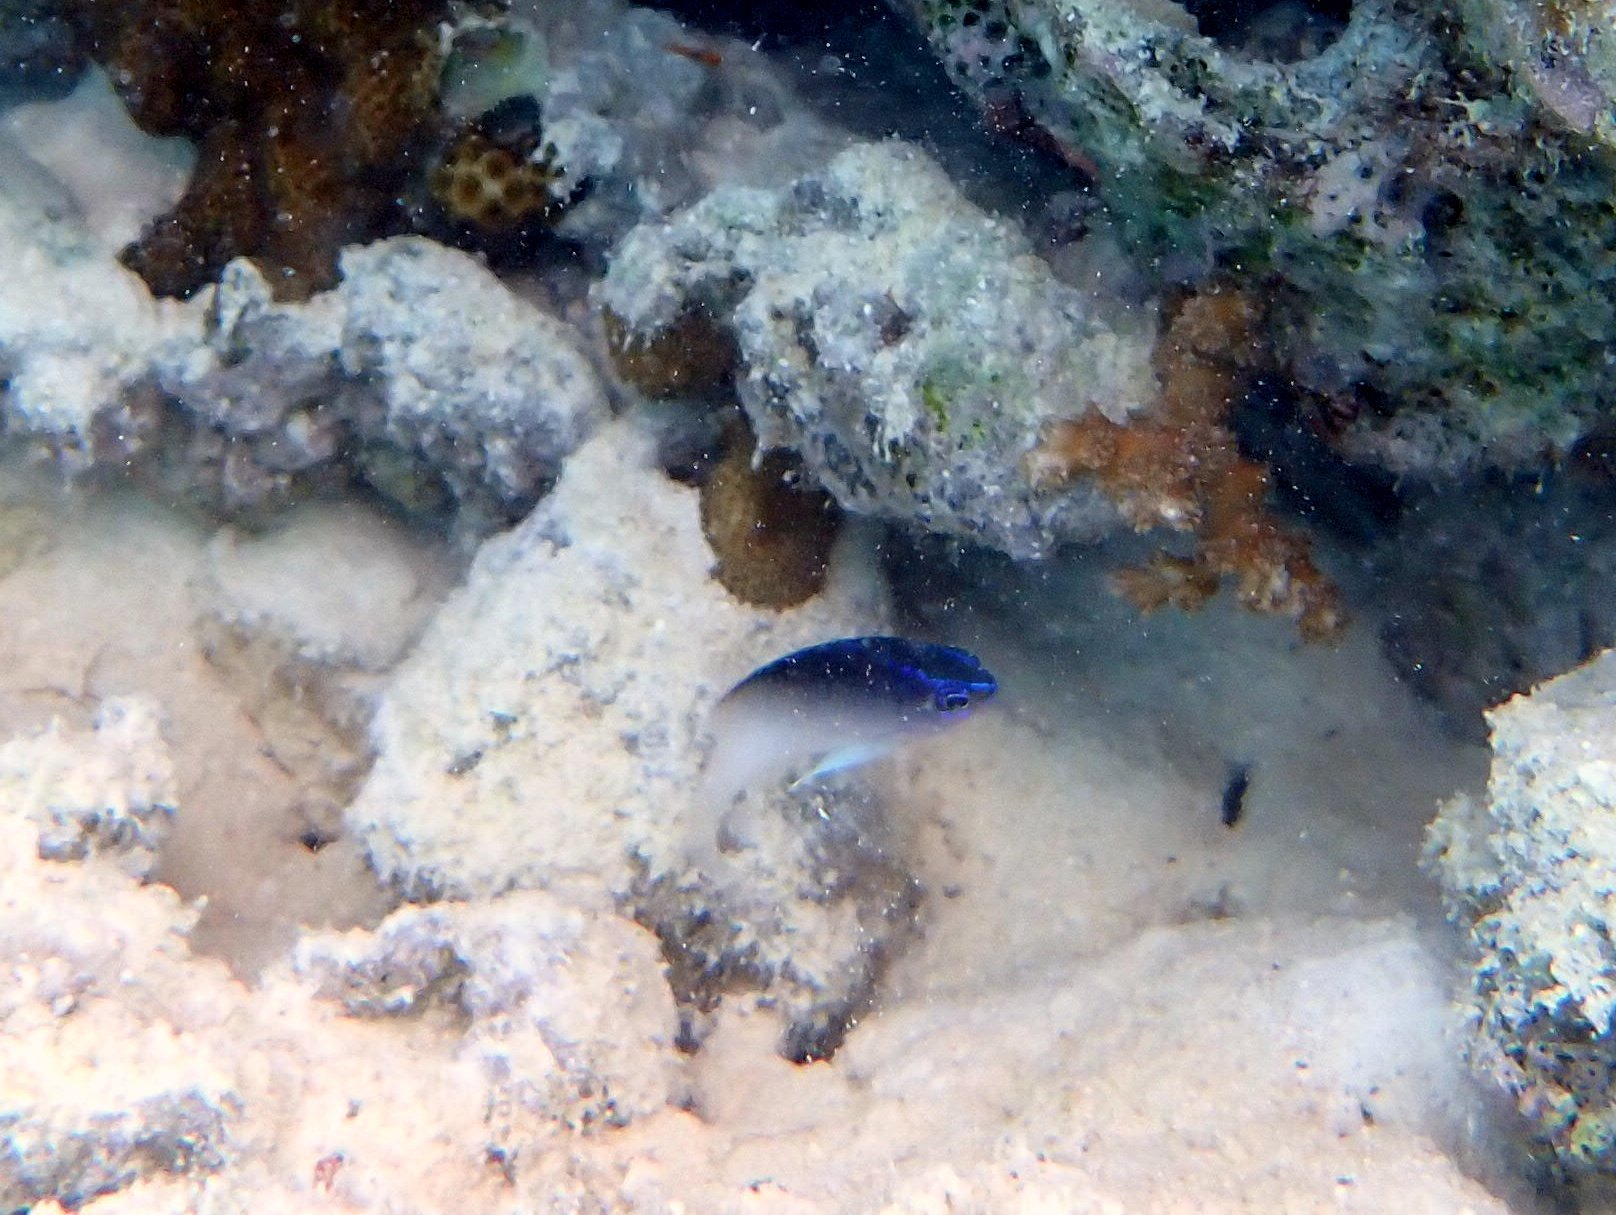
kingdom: Animalia
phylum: Chordata
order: Perciformes
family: Pomacentridae
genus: Chrysiptera
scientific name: Chrysiptera rollandi
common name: Rolland's demoiselle
